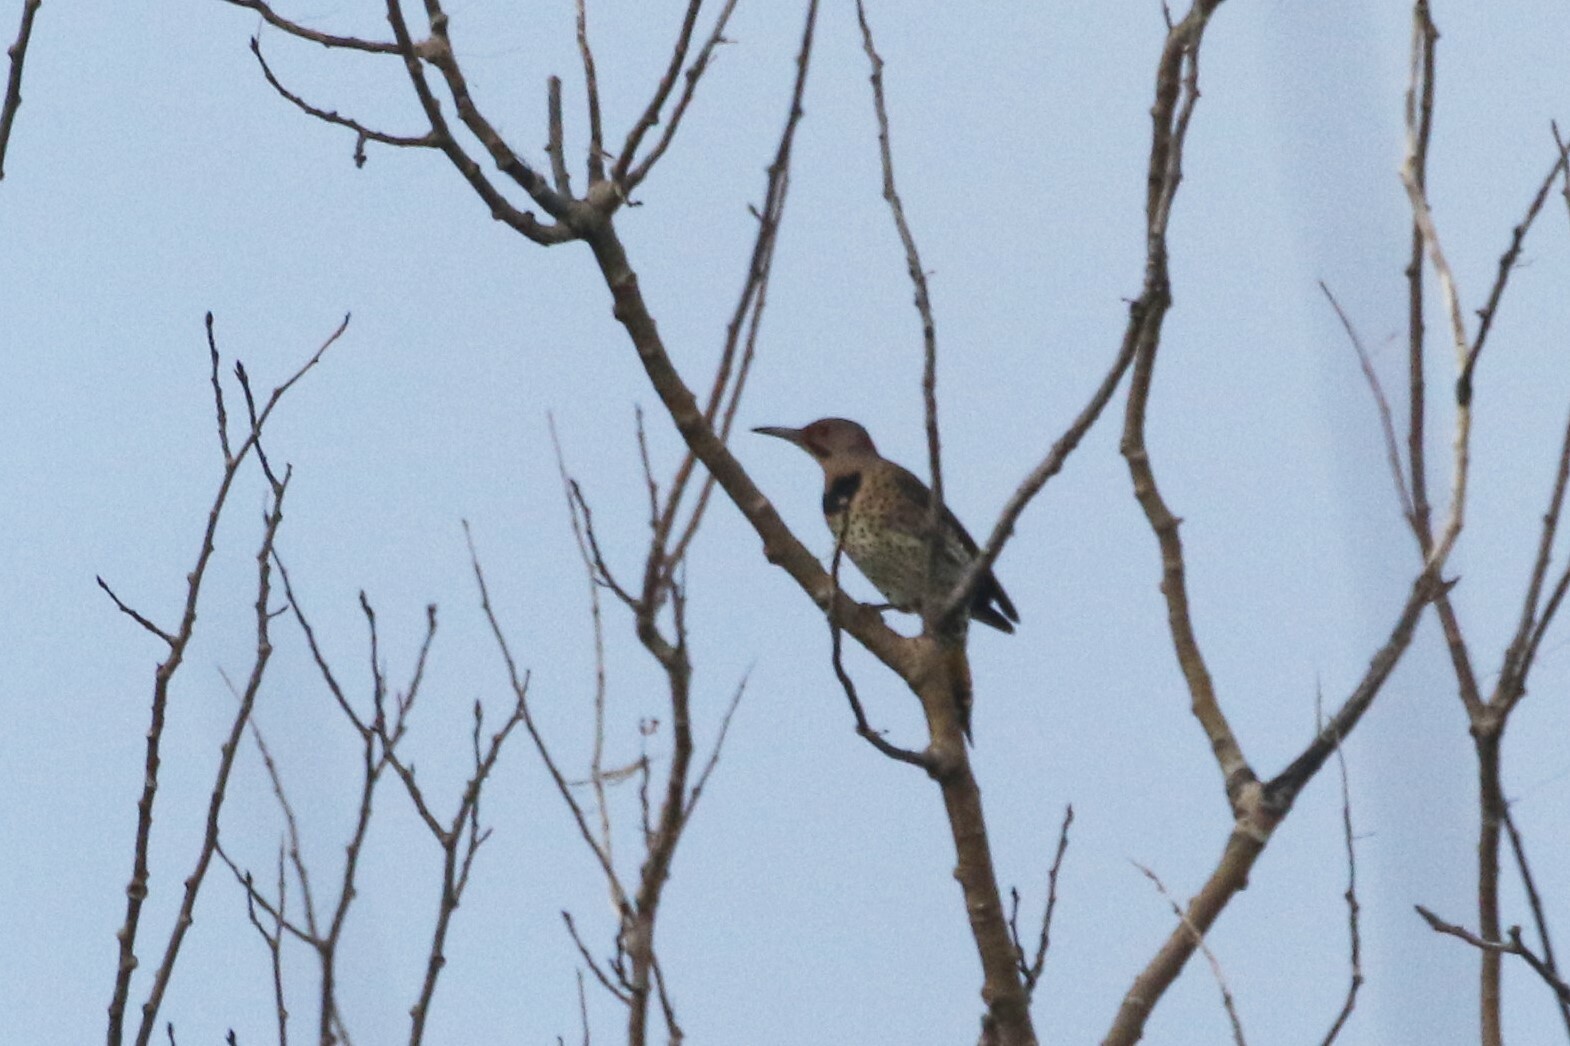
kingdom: Animalia
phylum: Chordata
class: Aves
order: Piciformes
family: Picidae
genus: Colaptes
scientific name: Colaptes auratus
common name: Northern flicker
